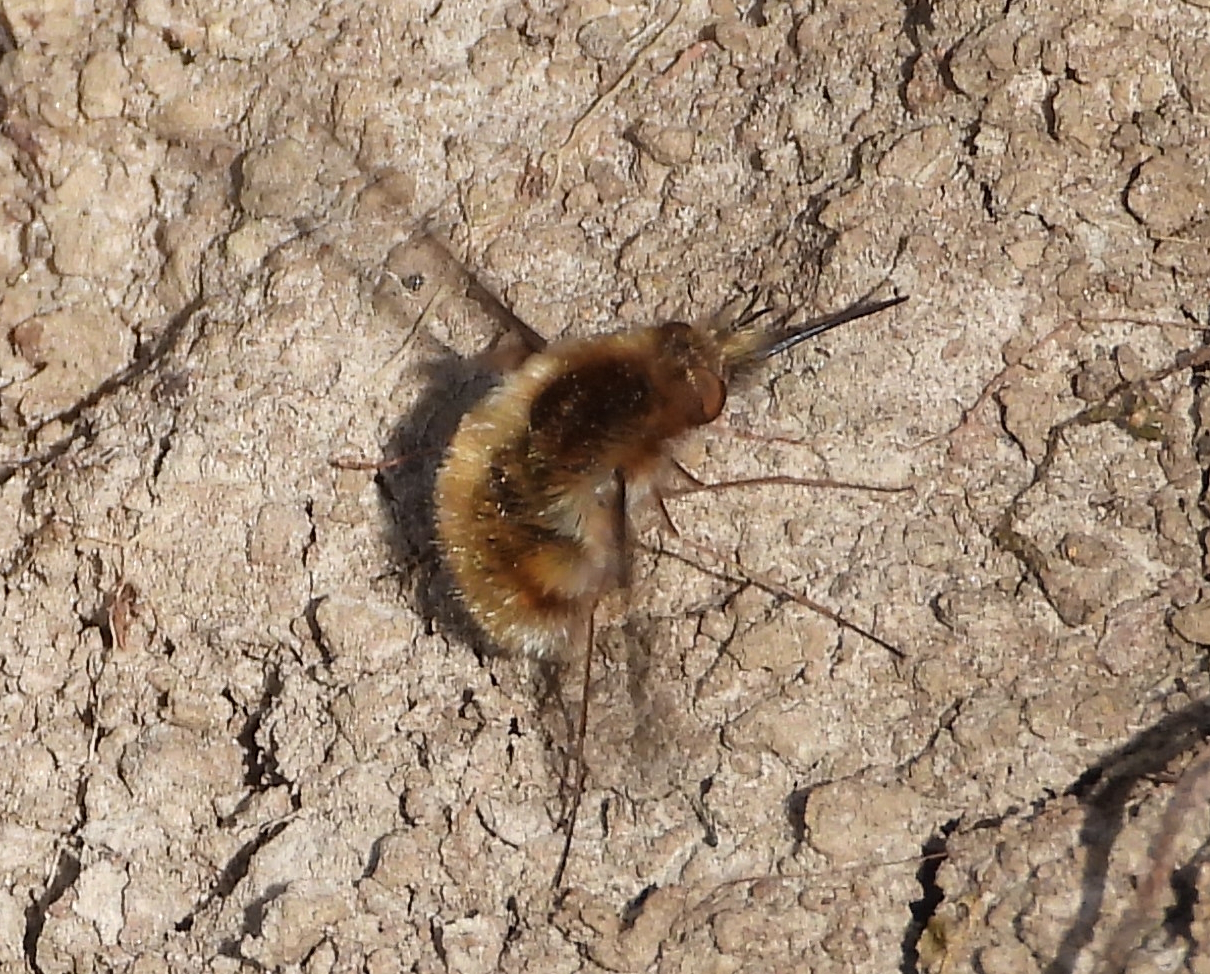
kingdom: Animalia
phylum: Arthropoda
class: Insecta
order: Diptera
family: Bombyliidae
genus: Bombylius
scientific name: Bombylius
